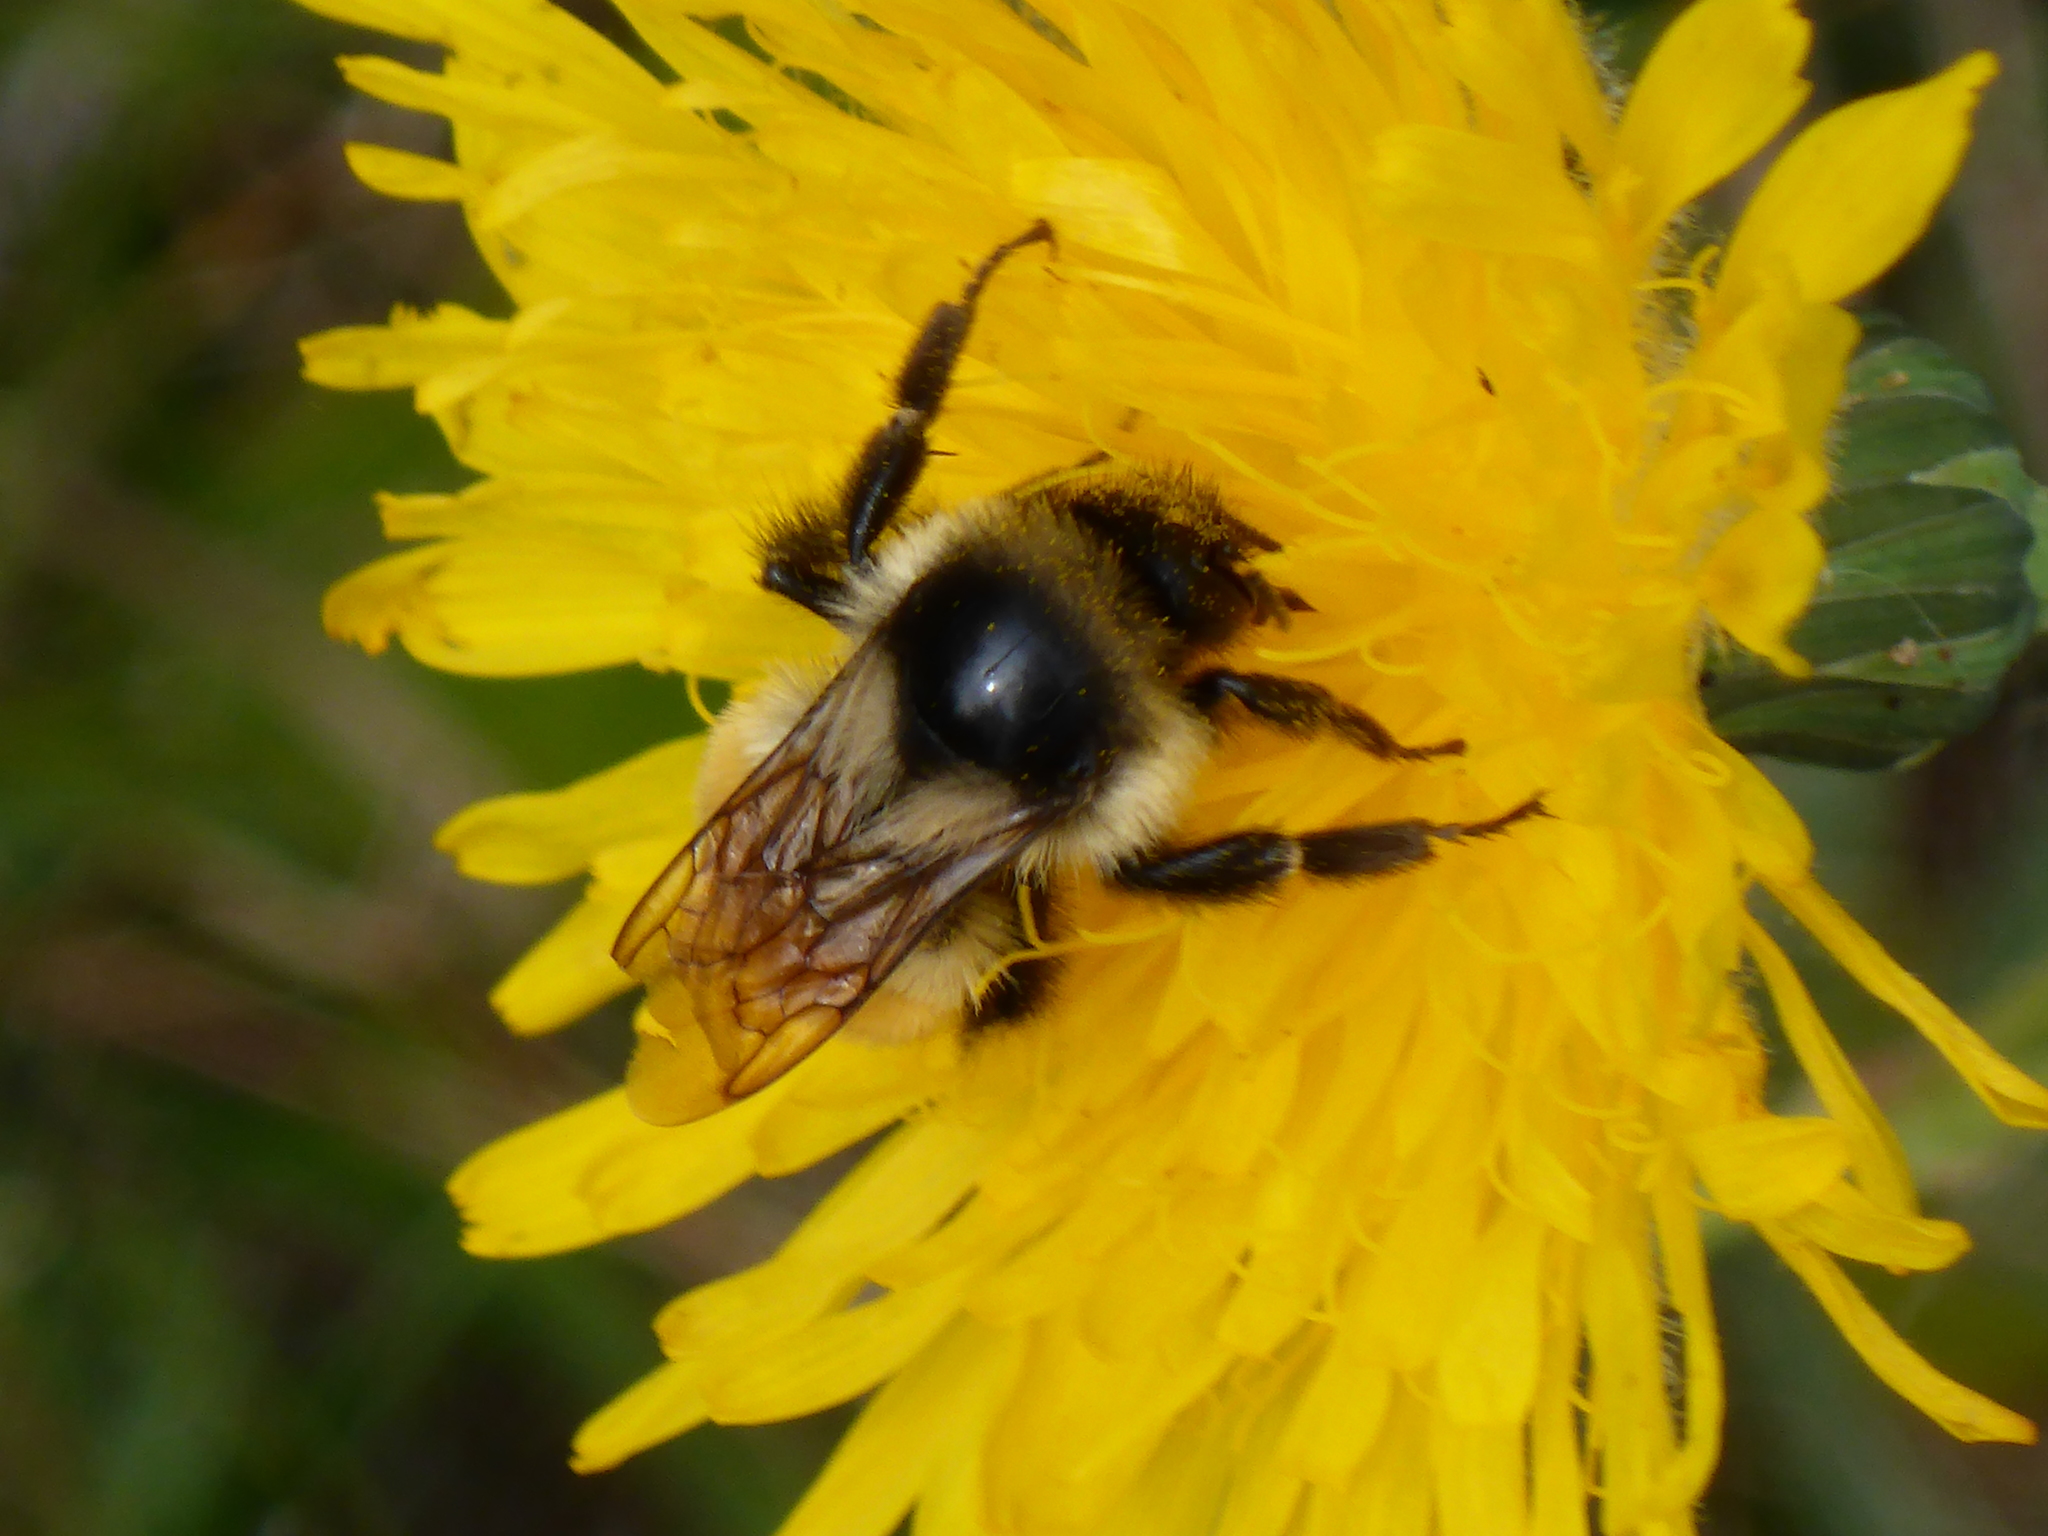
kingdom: Animalia
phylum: Arthropoda
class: Insecta
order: Hymenoptera
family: Apidae
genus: Bombus
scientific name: Bombus ternarius
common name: Tri-colored bumble bee
